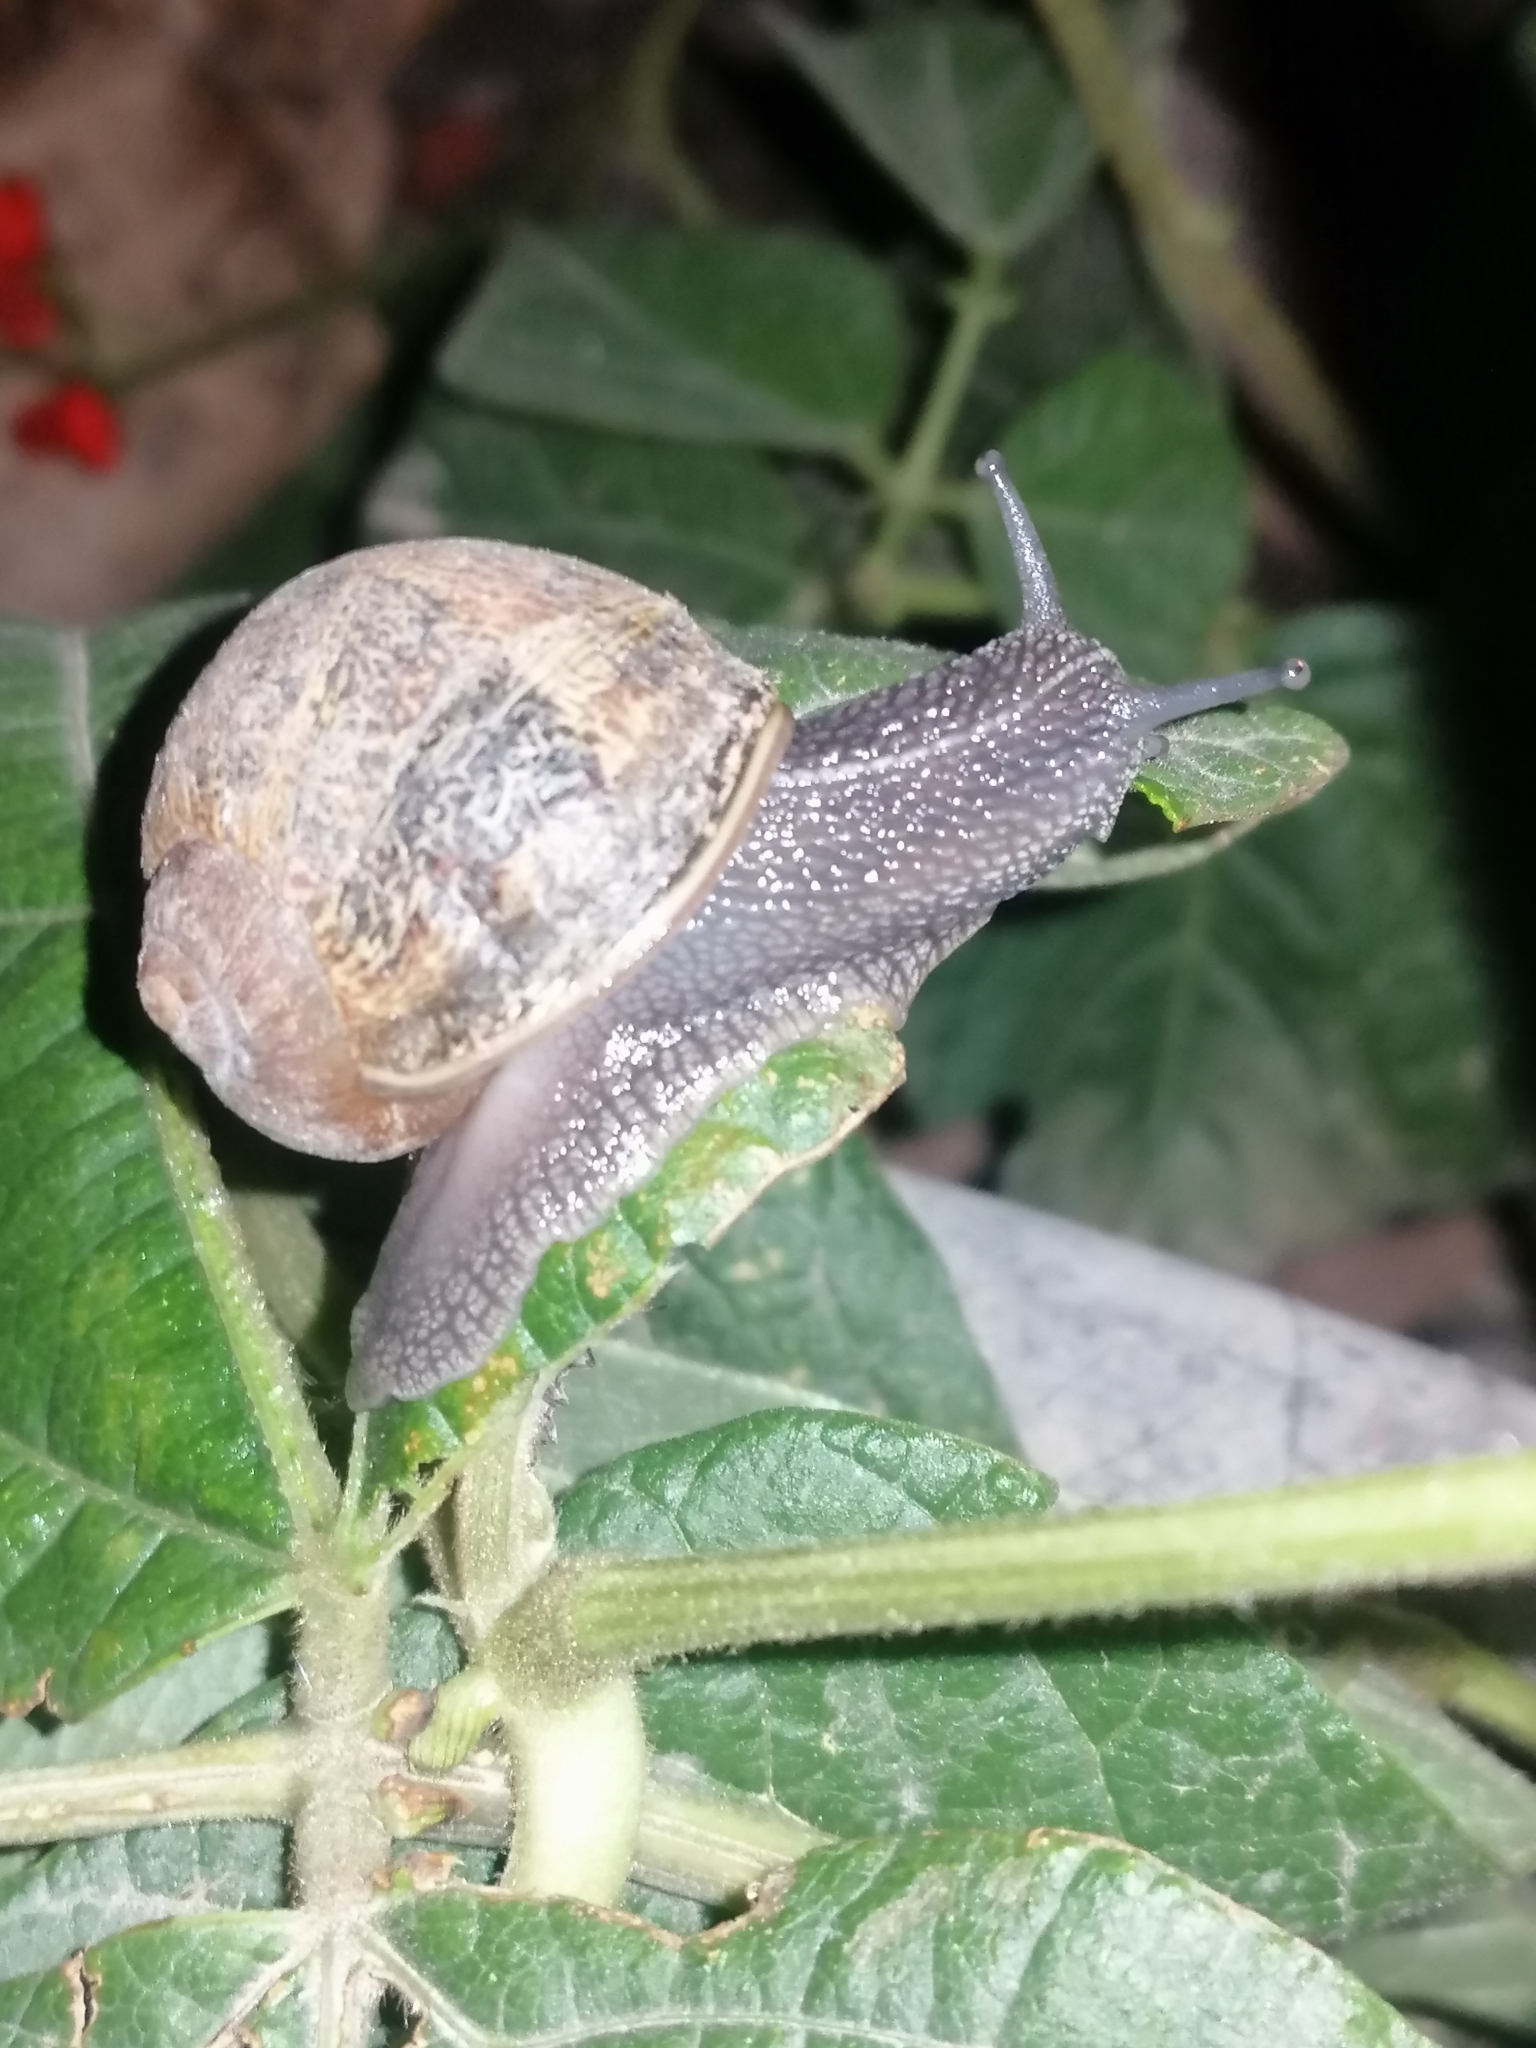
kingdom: Animalia
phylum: Mollusca
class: Gastropoda
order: Stylommatophora
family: Helicidae
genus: Cornu
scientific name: Cornu aspersum
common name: Brown garden snail
